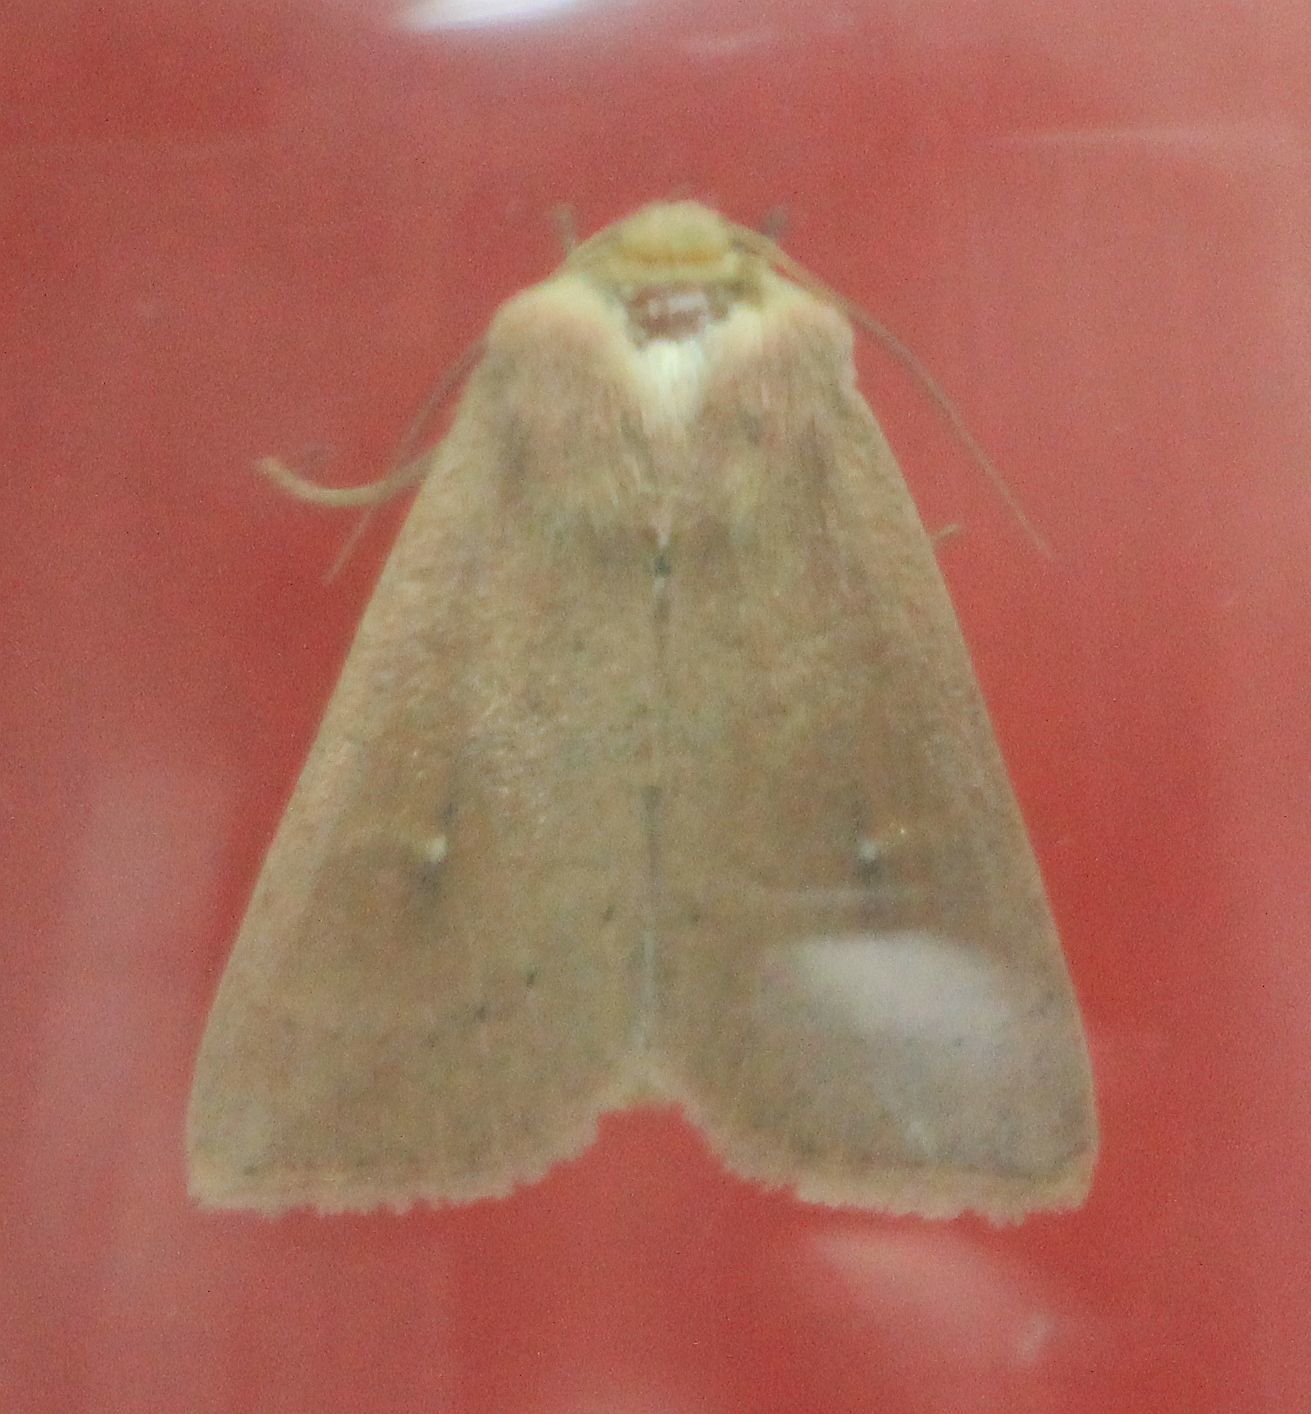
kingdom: Animalia
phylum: Arthropoda
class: Insecta
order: Lepidoptera
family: Noctuidae
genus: Mythimna
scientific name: Mythimna ferrago
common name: Clay
